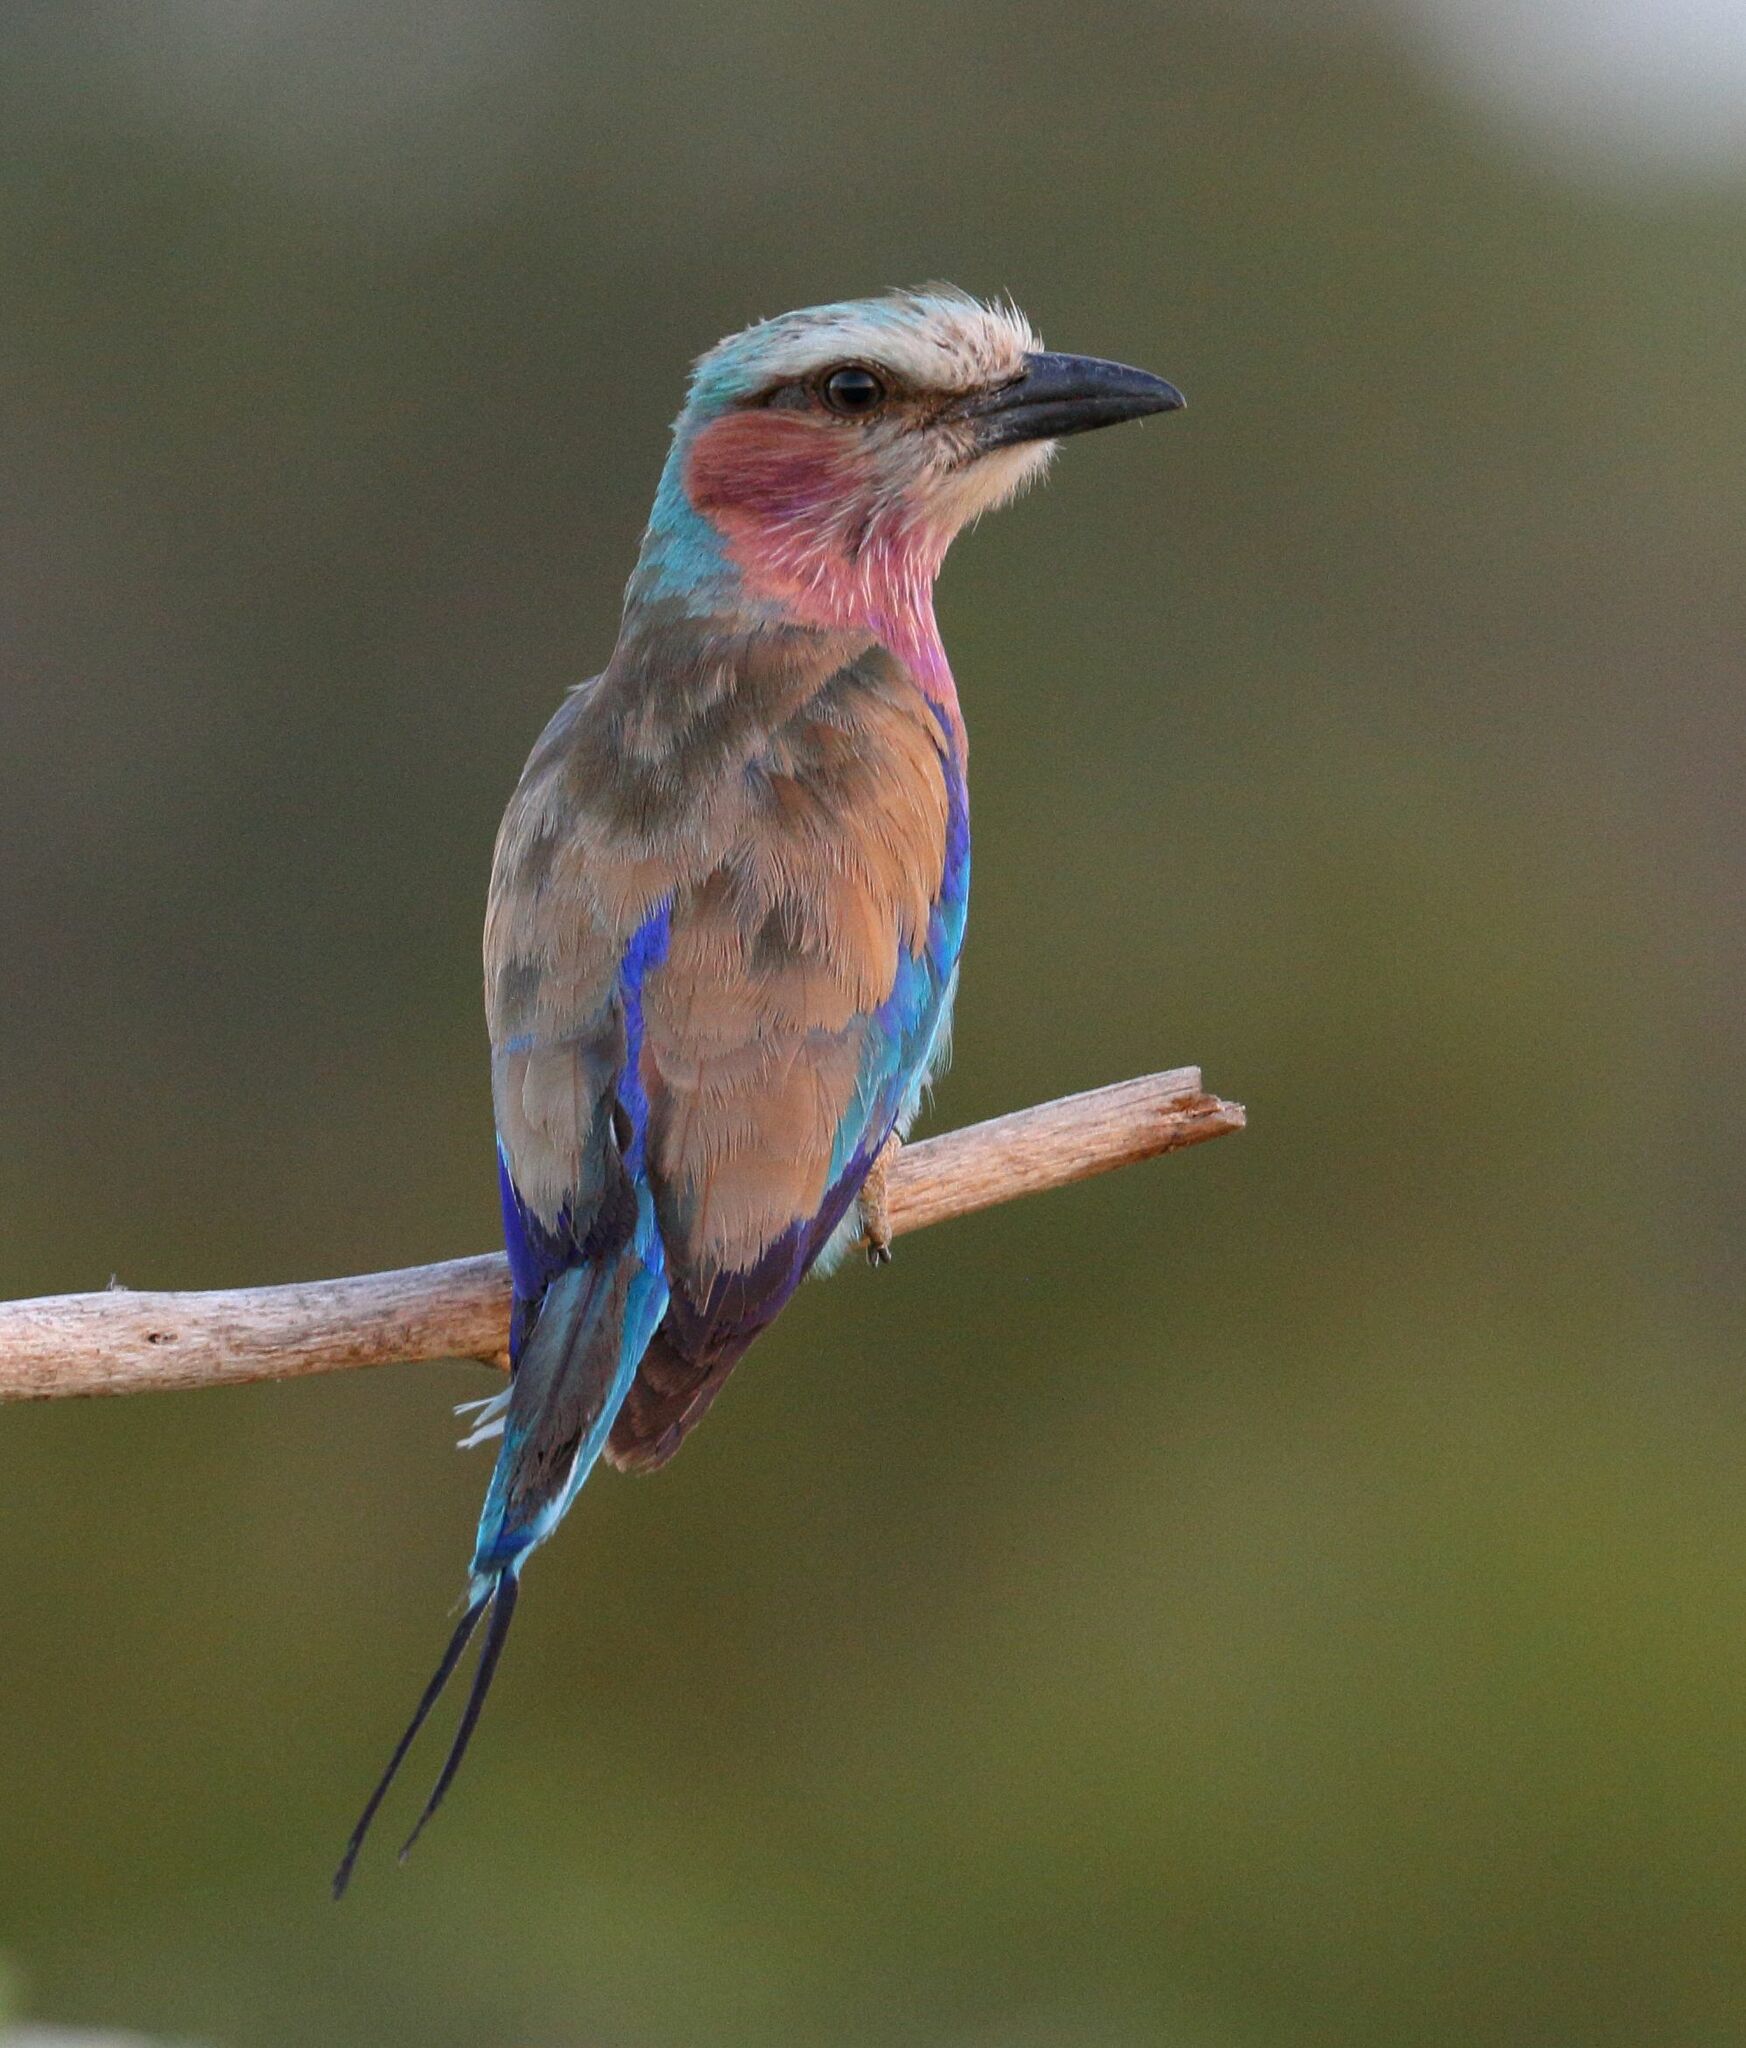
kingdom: Animalia
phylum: Chordata
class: Aves
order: Coraciiformes
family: Coraciidae
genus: Coracias
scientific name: Coracias caudatus
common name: Lilac-breasted roller
